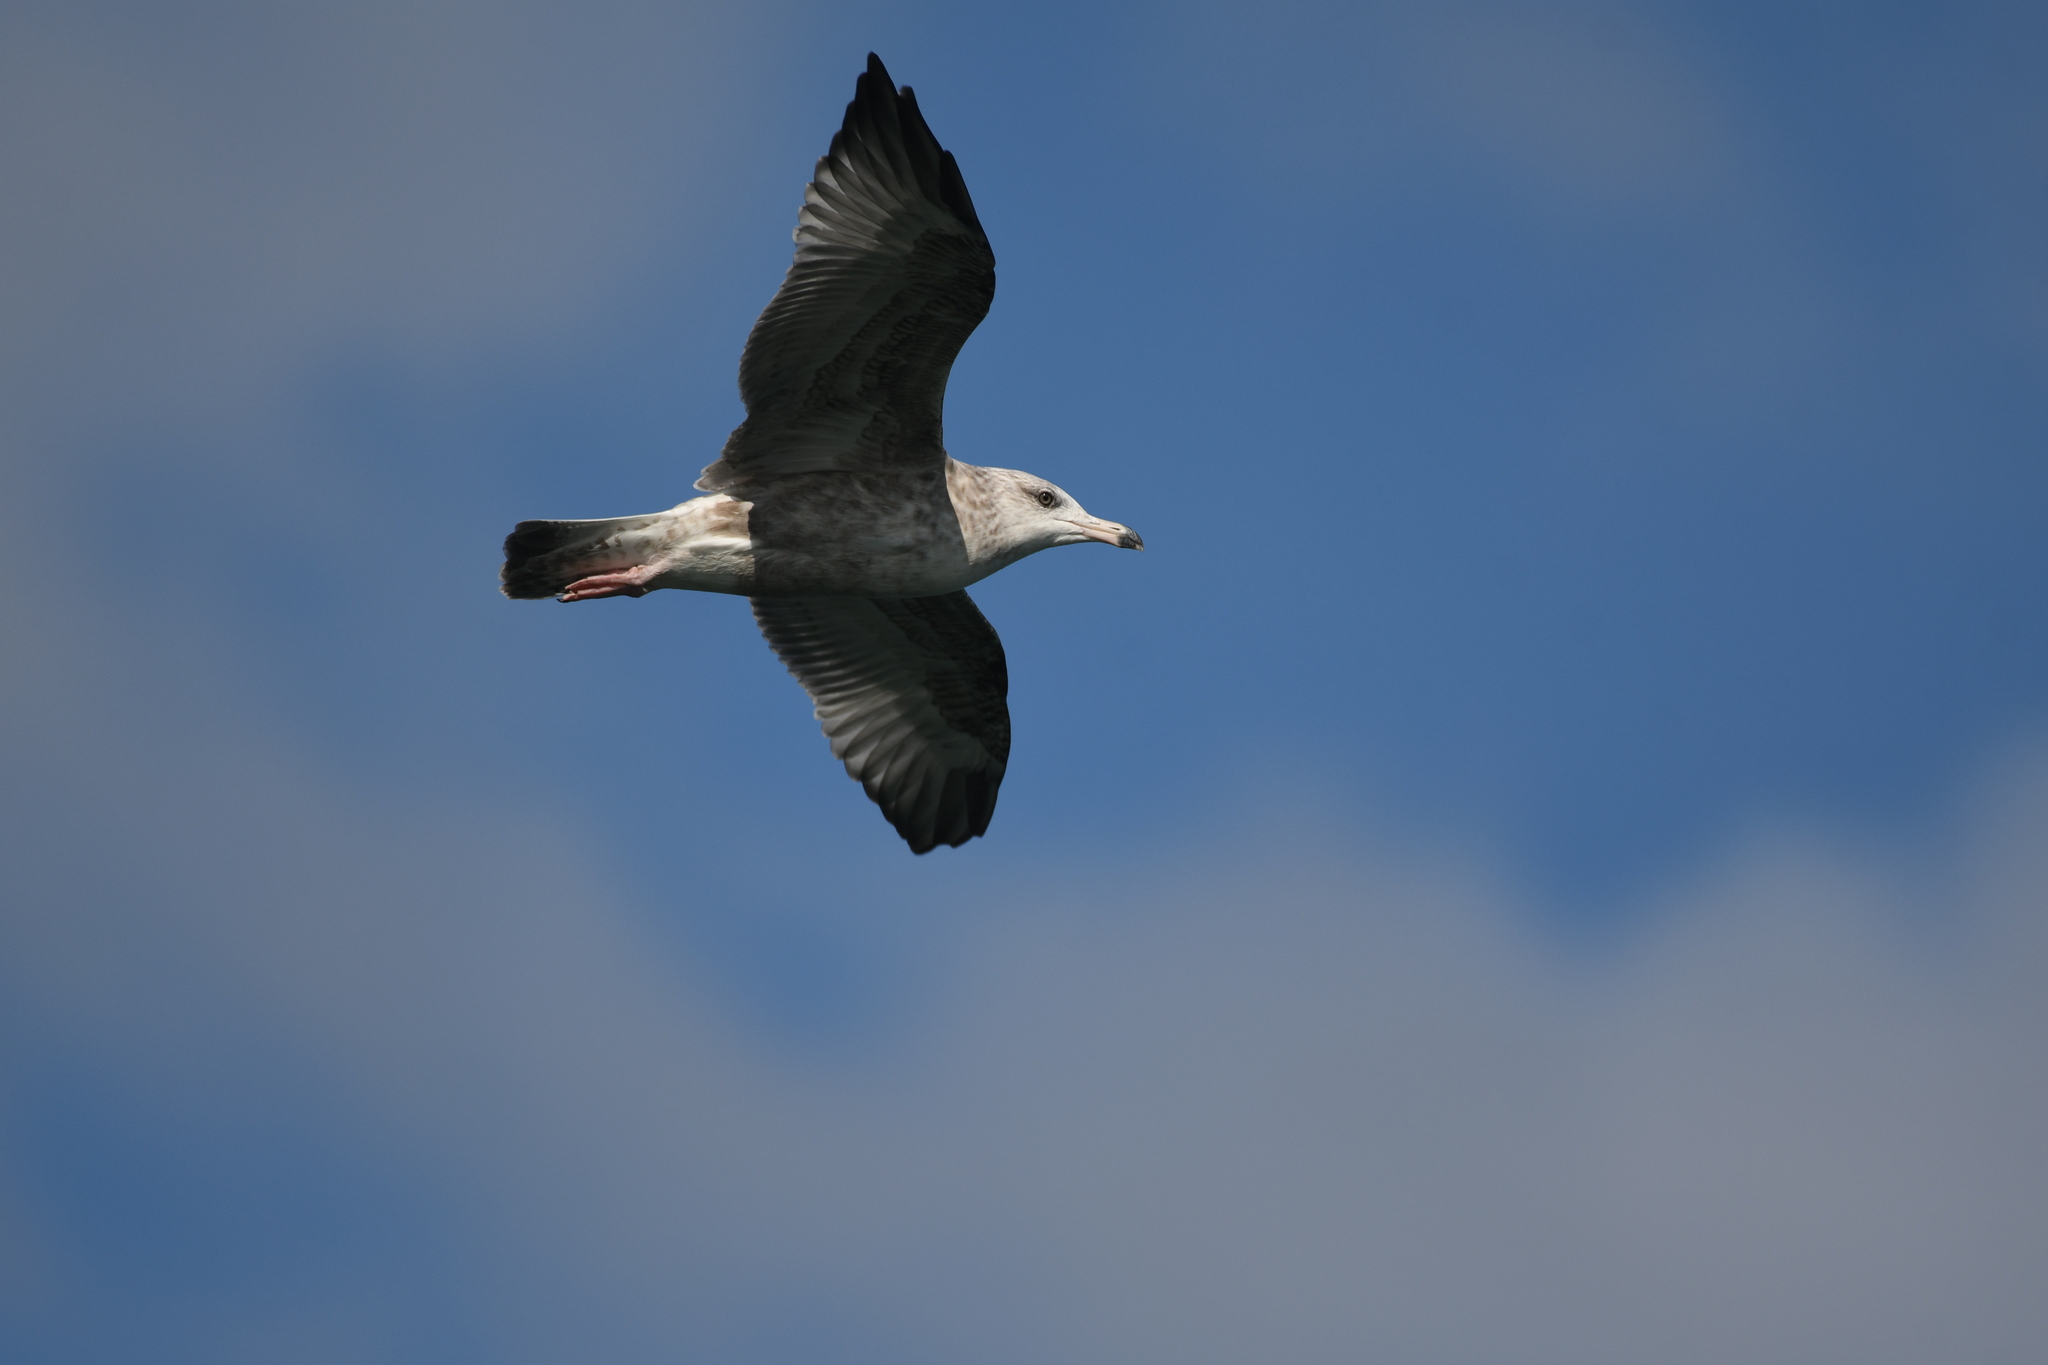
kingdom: Animalia
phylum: Chordata
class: Aves
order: Charadriiformes
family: Laridae
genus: Larus
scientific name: Larus delawarensis
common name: Ring-billed gull
